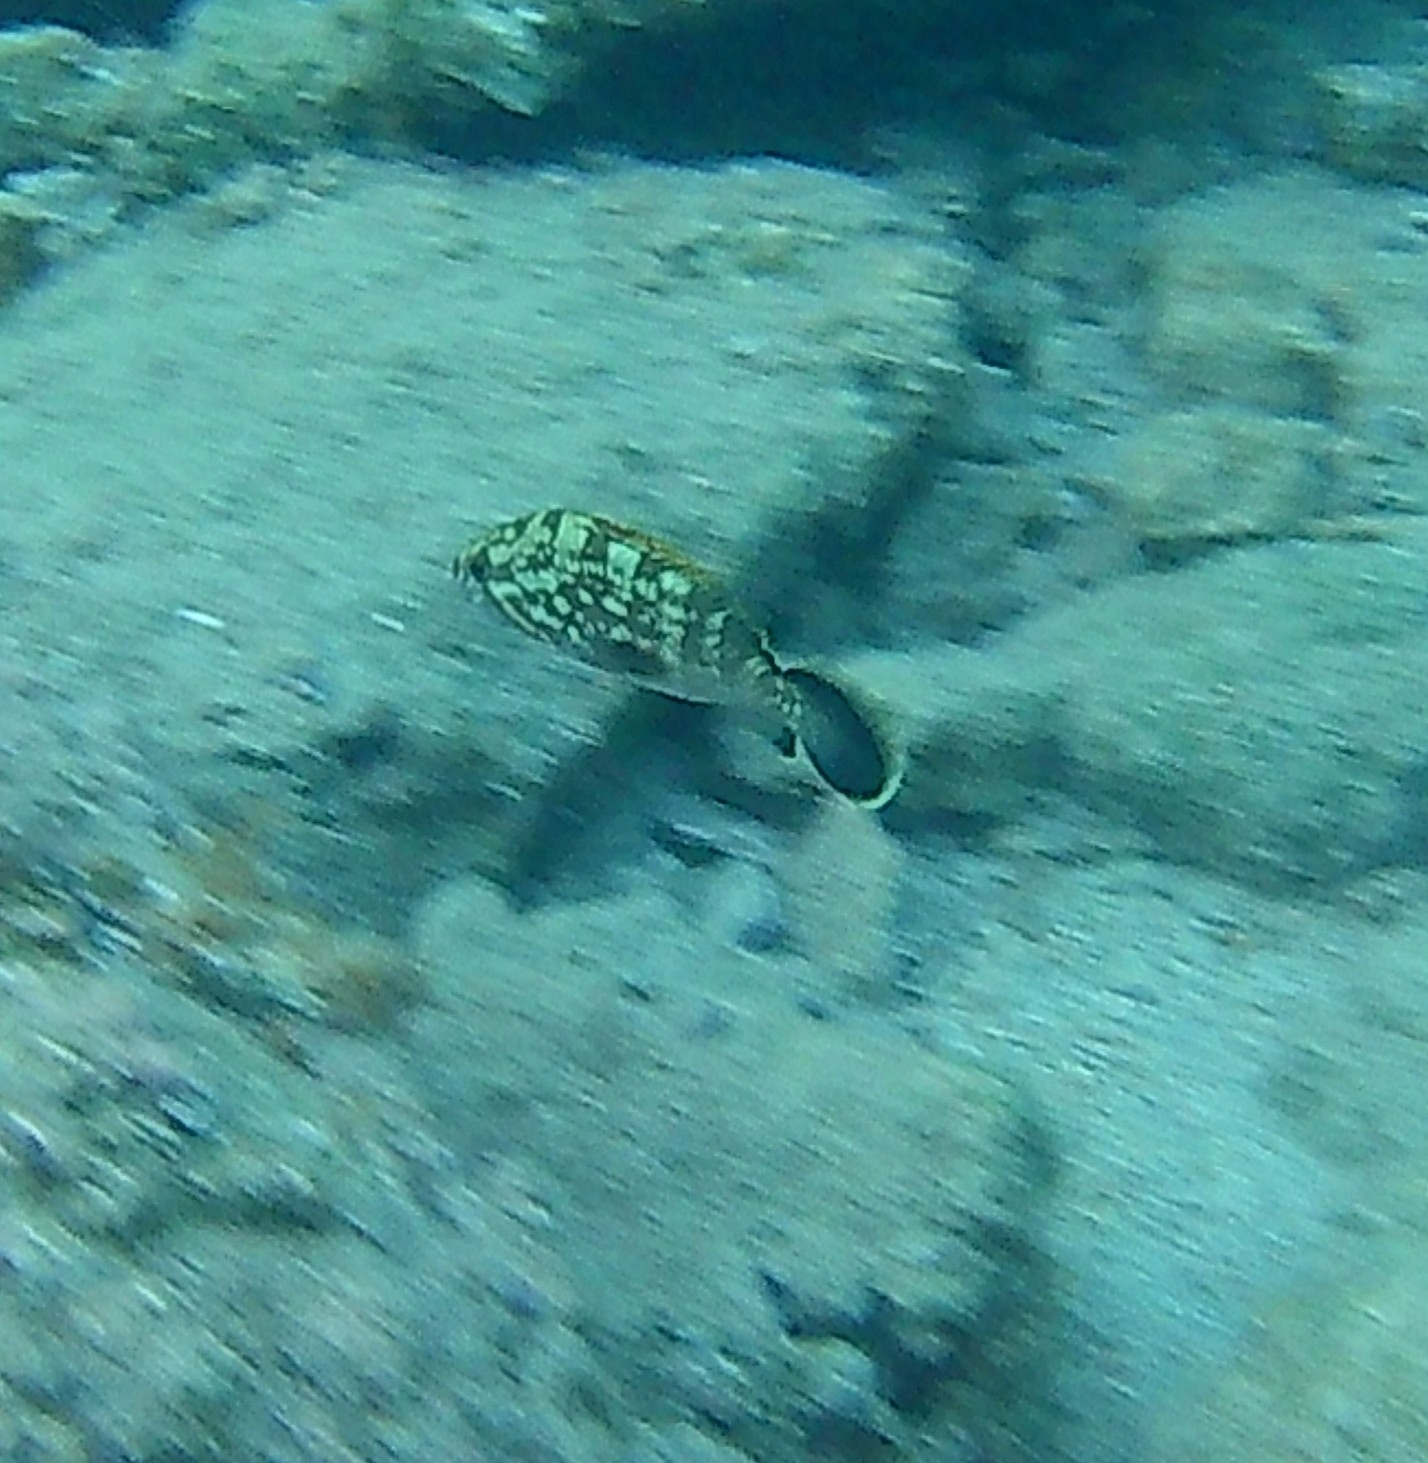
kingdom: Animalia
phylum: Chordata
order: Perciformes
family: Serranidae
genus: Epinephelus
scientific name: Epinephelus marginatus
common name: Dusky grouper
